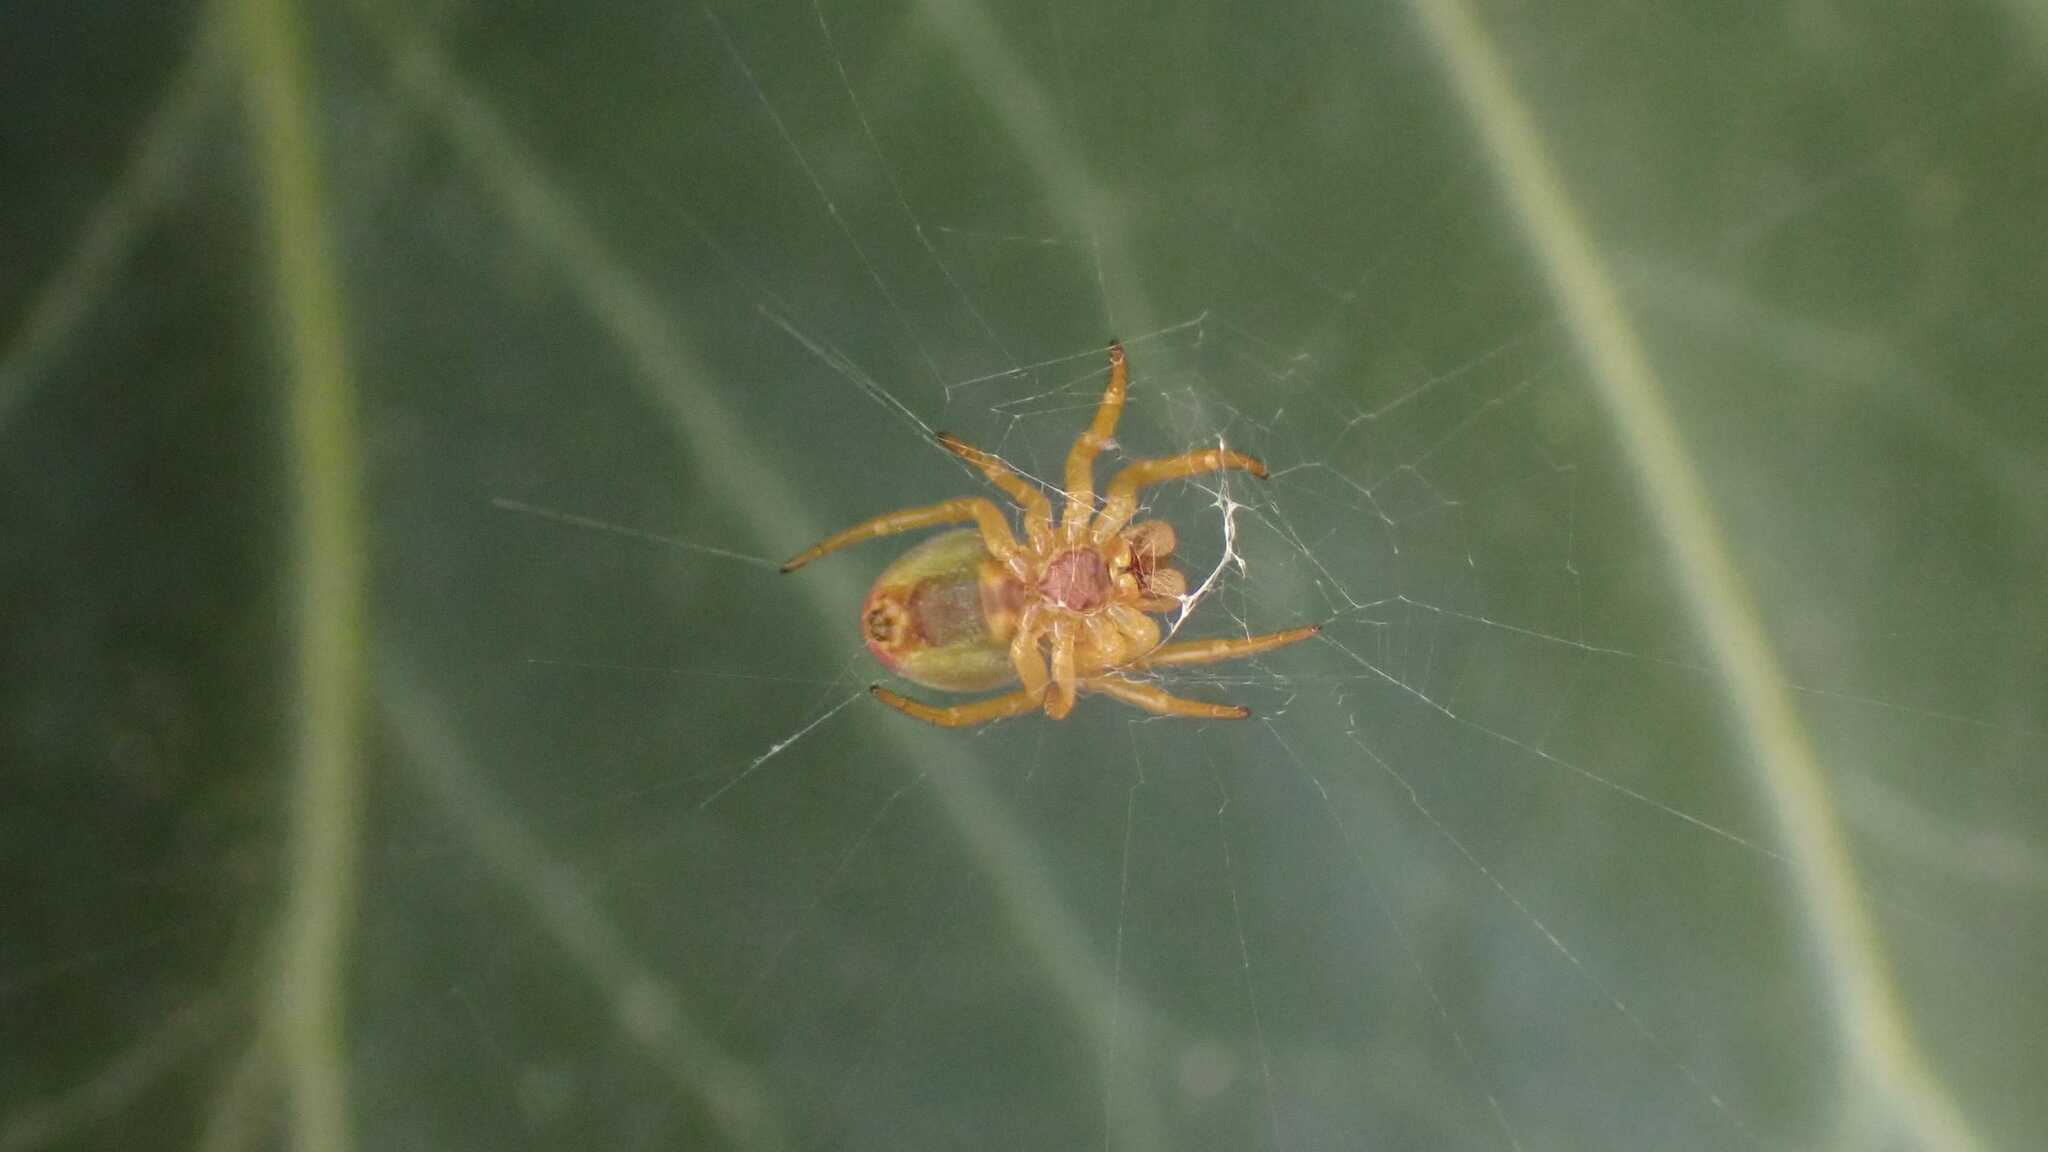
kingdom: Animalia
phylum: Arthropoda
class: Arachnida
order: Araneae
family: Araneidae
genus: Araniella
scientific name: Araniella
